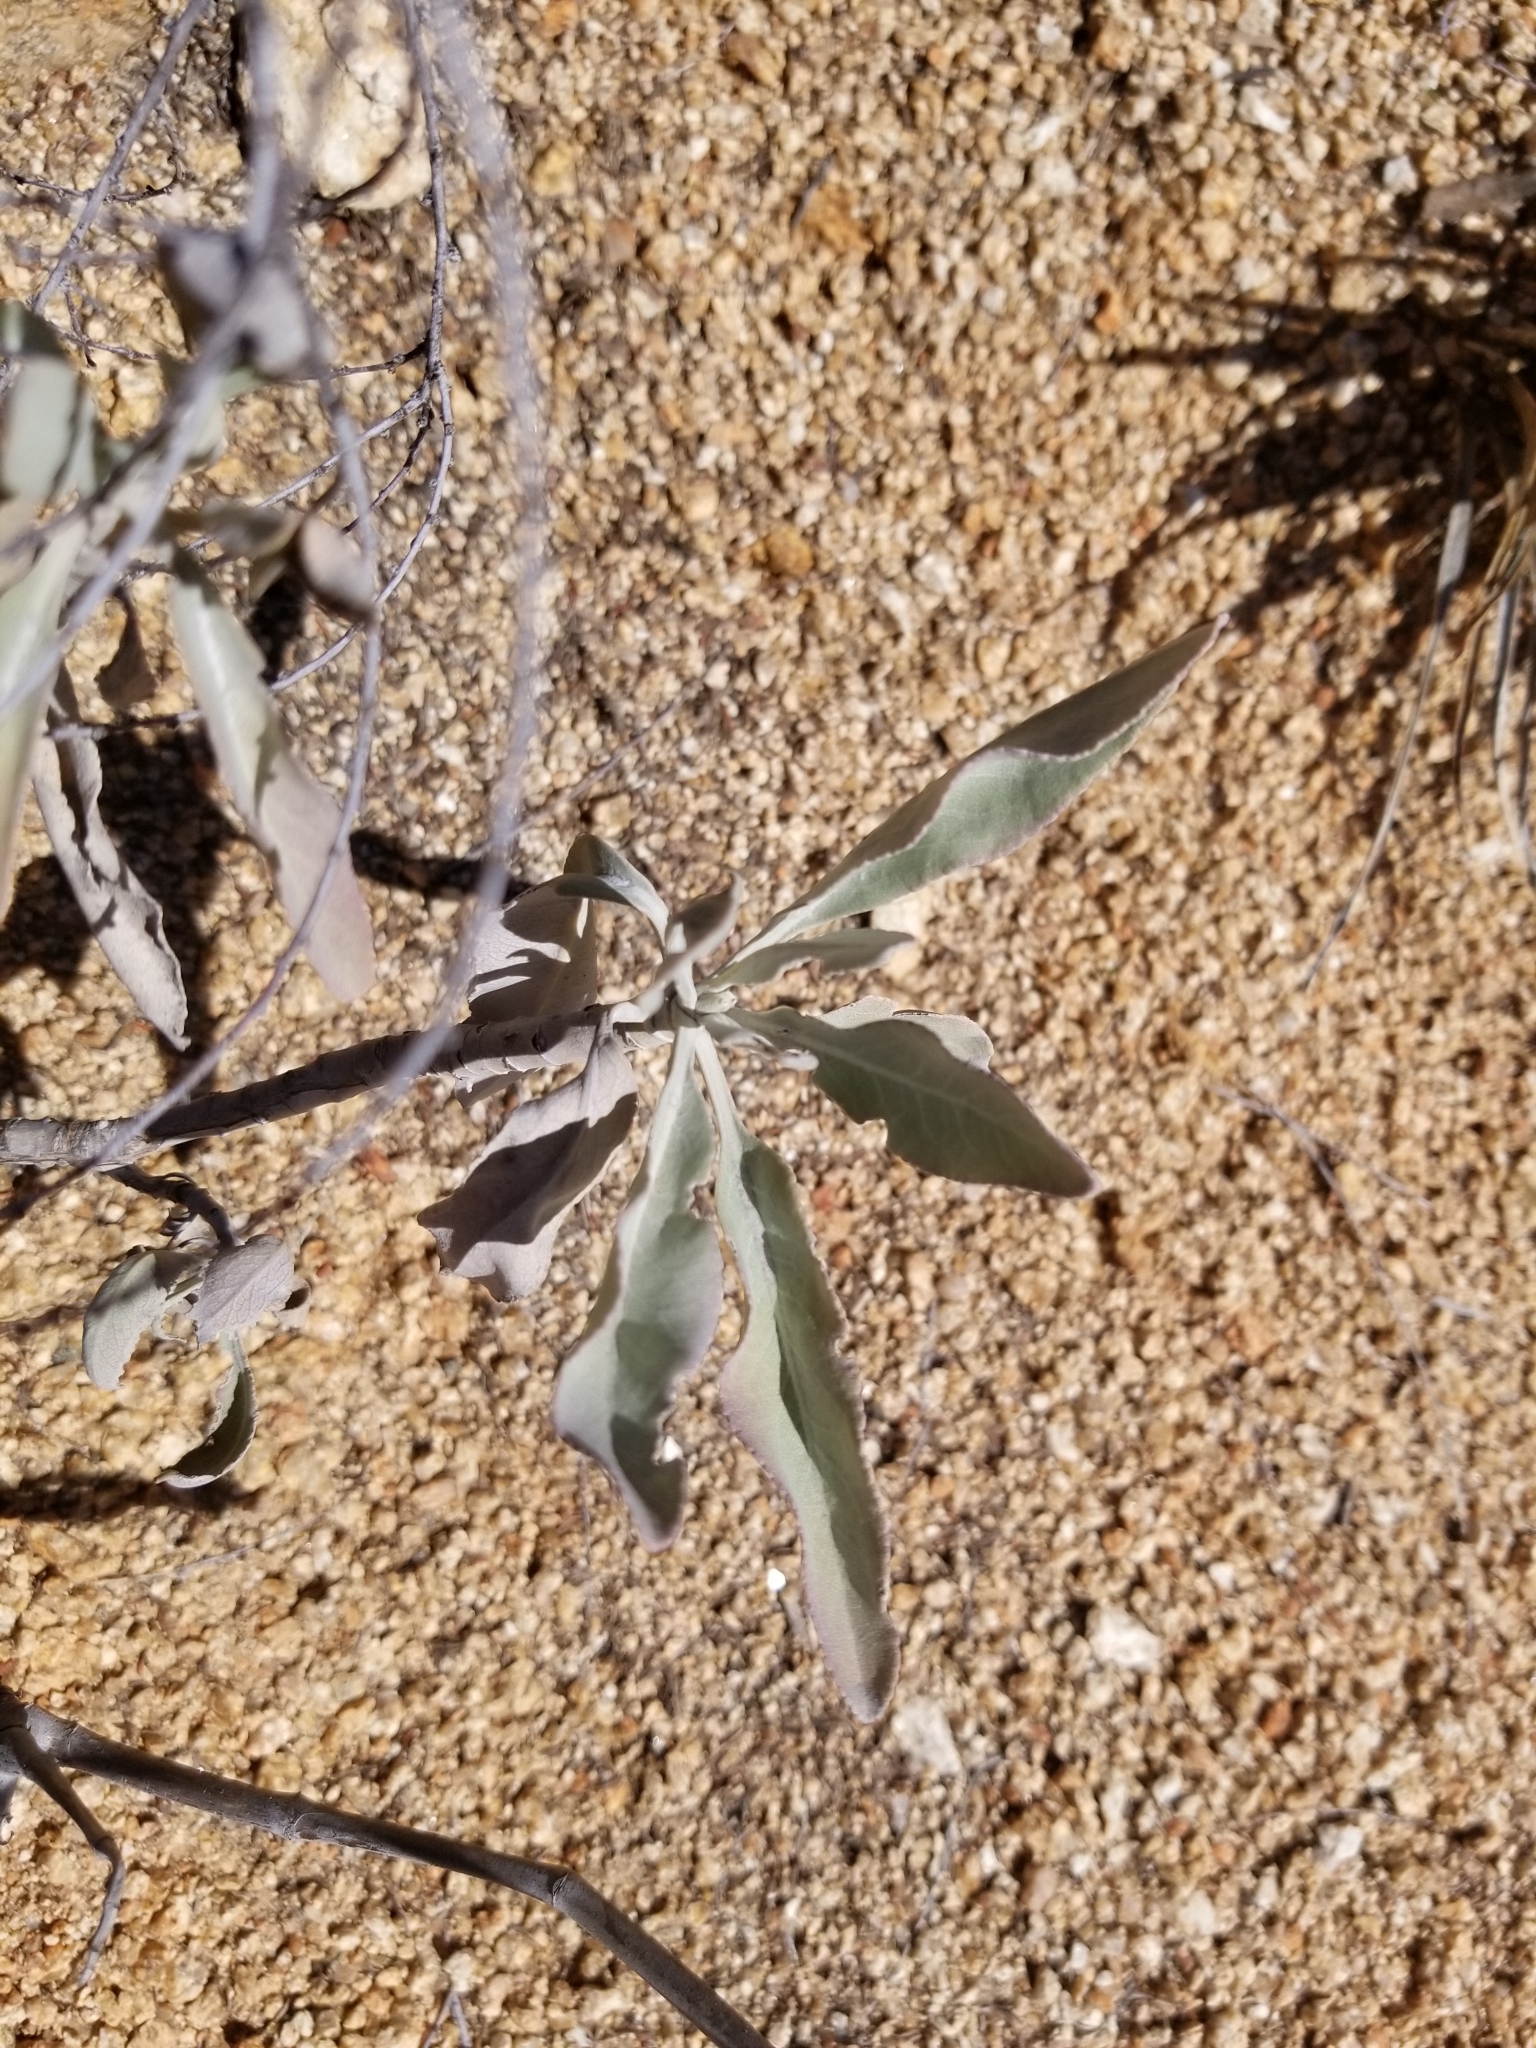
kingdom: Plantae
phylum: Tracheophyta
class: Magnoliopsida
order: Lamiales
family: Lamiaceae
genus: Salvia
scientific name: Salvia apiana
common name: White sage
